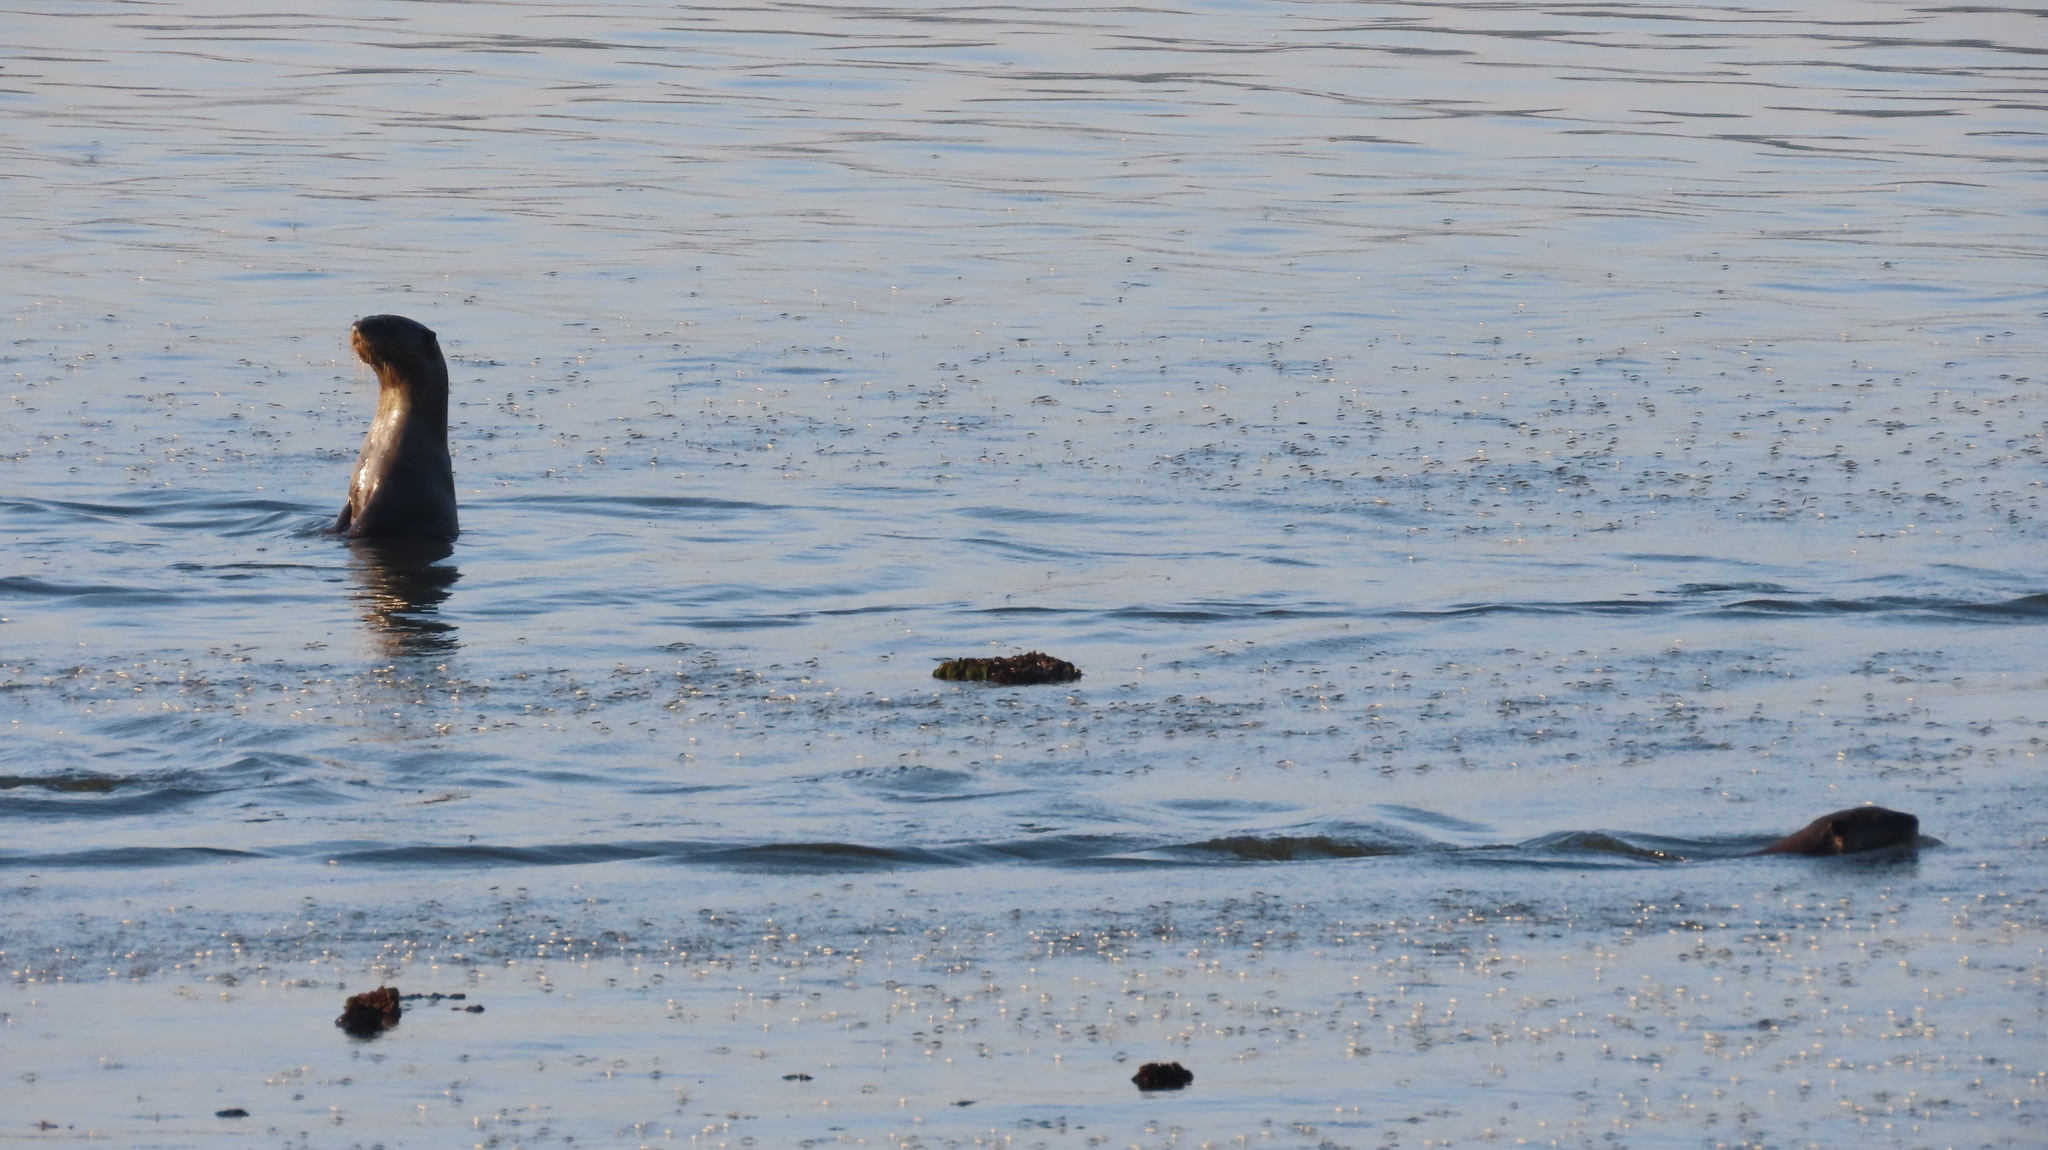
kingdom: Animalia
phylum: Chordata
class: Mammalia
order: Carnivora
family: Mustelidae
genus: Lutrogale
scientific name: Lutrogale perspicillata
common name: Smooth-coated otter
